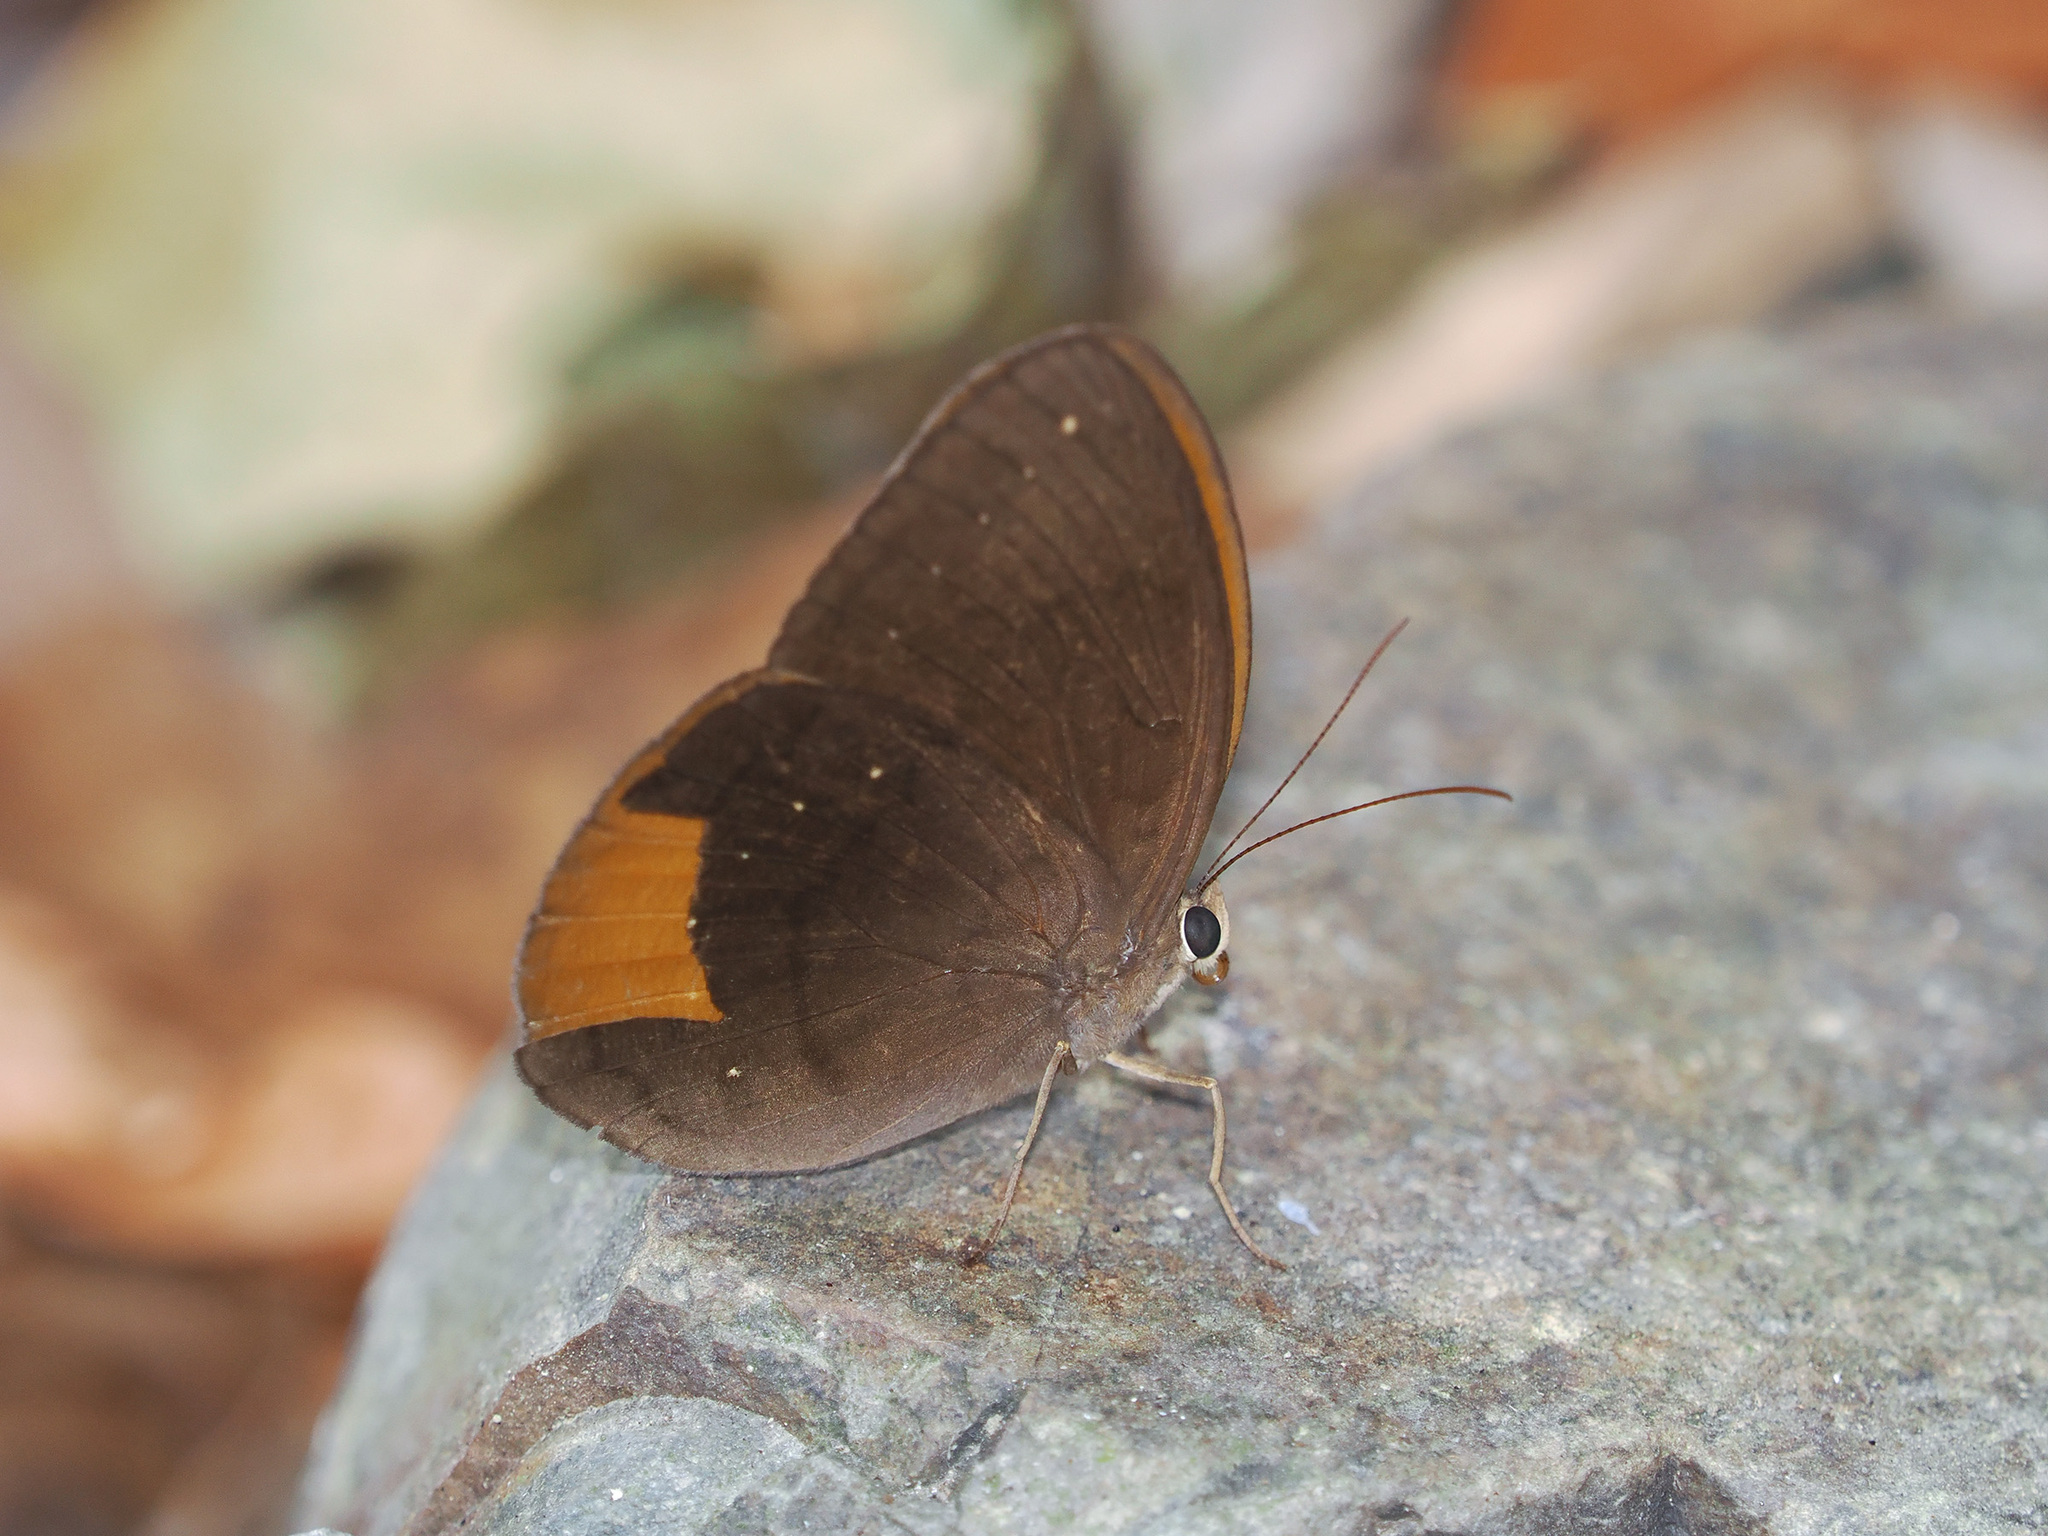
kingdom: Animalia
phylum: Arthropoda
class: Insecta
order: Lepidoptera
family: Nymphalidae
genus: Faunis
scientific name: Faunis canens
